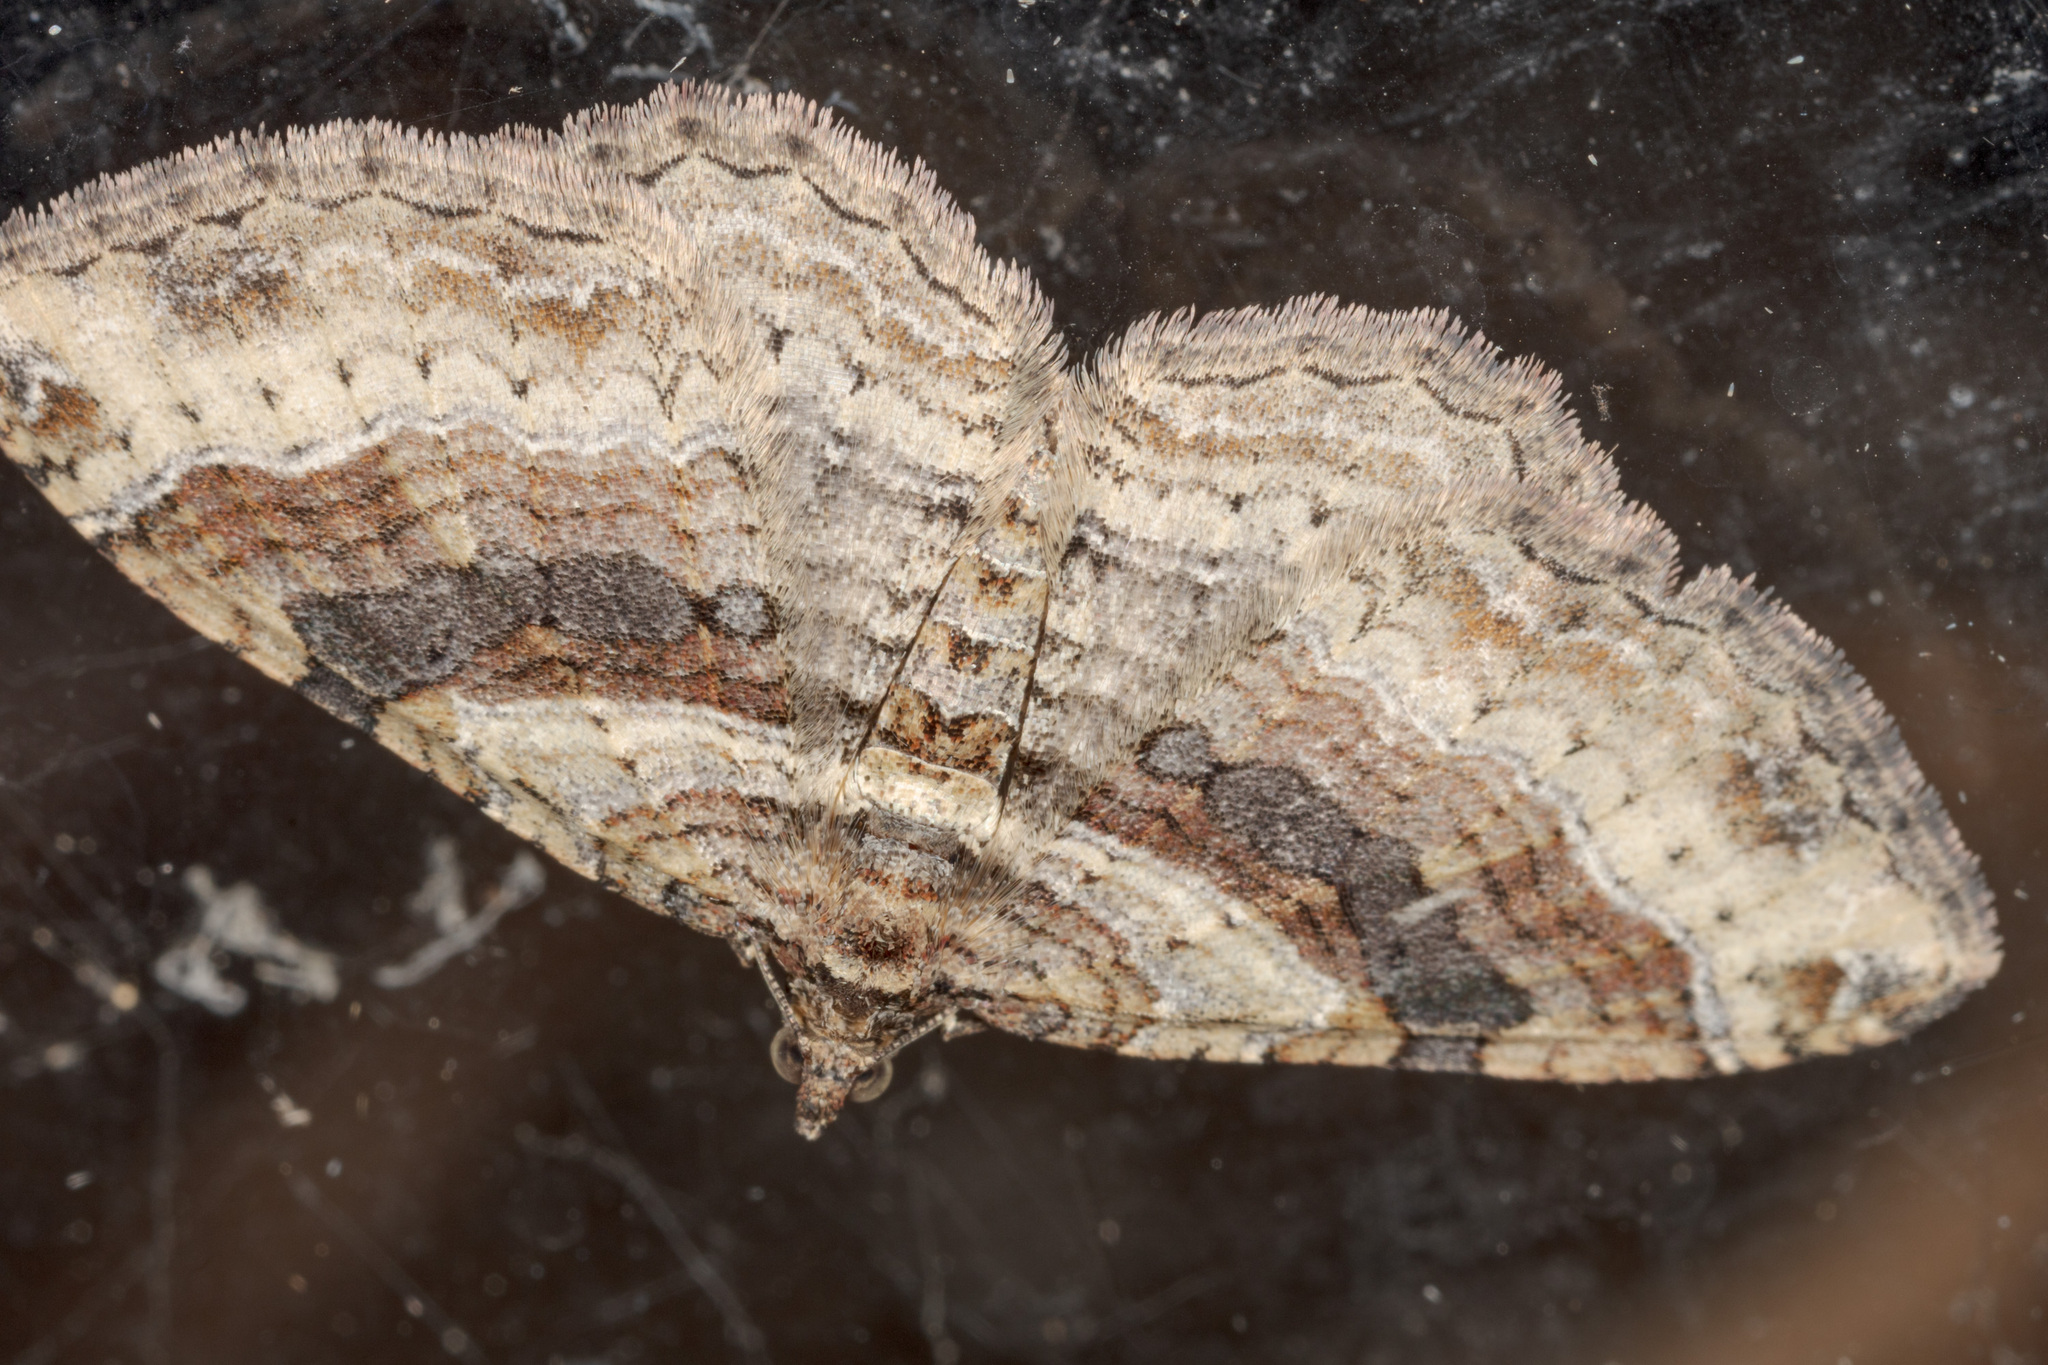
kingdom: Animalia
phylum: Arthropoda
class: Insecta
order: Lepidoptera
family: Geometridae
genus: Costaconvexa
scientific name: Costaconvexa centrostrigaria
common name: Bent-line carpet
